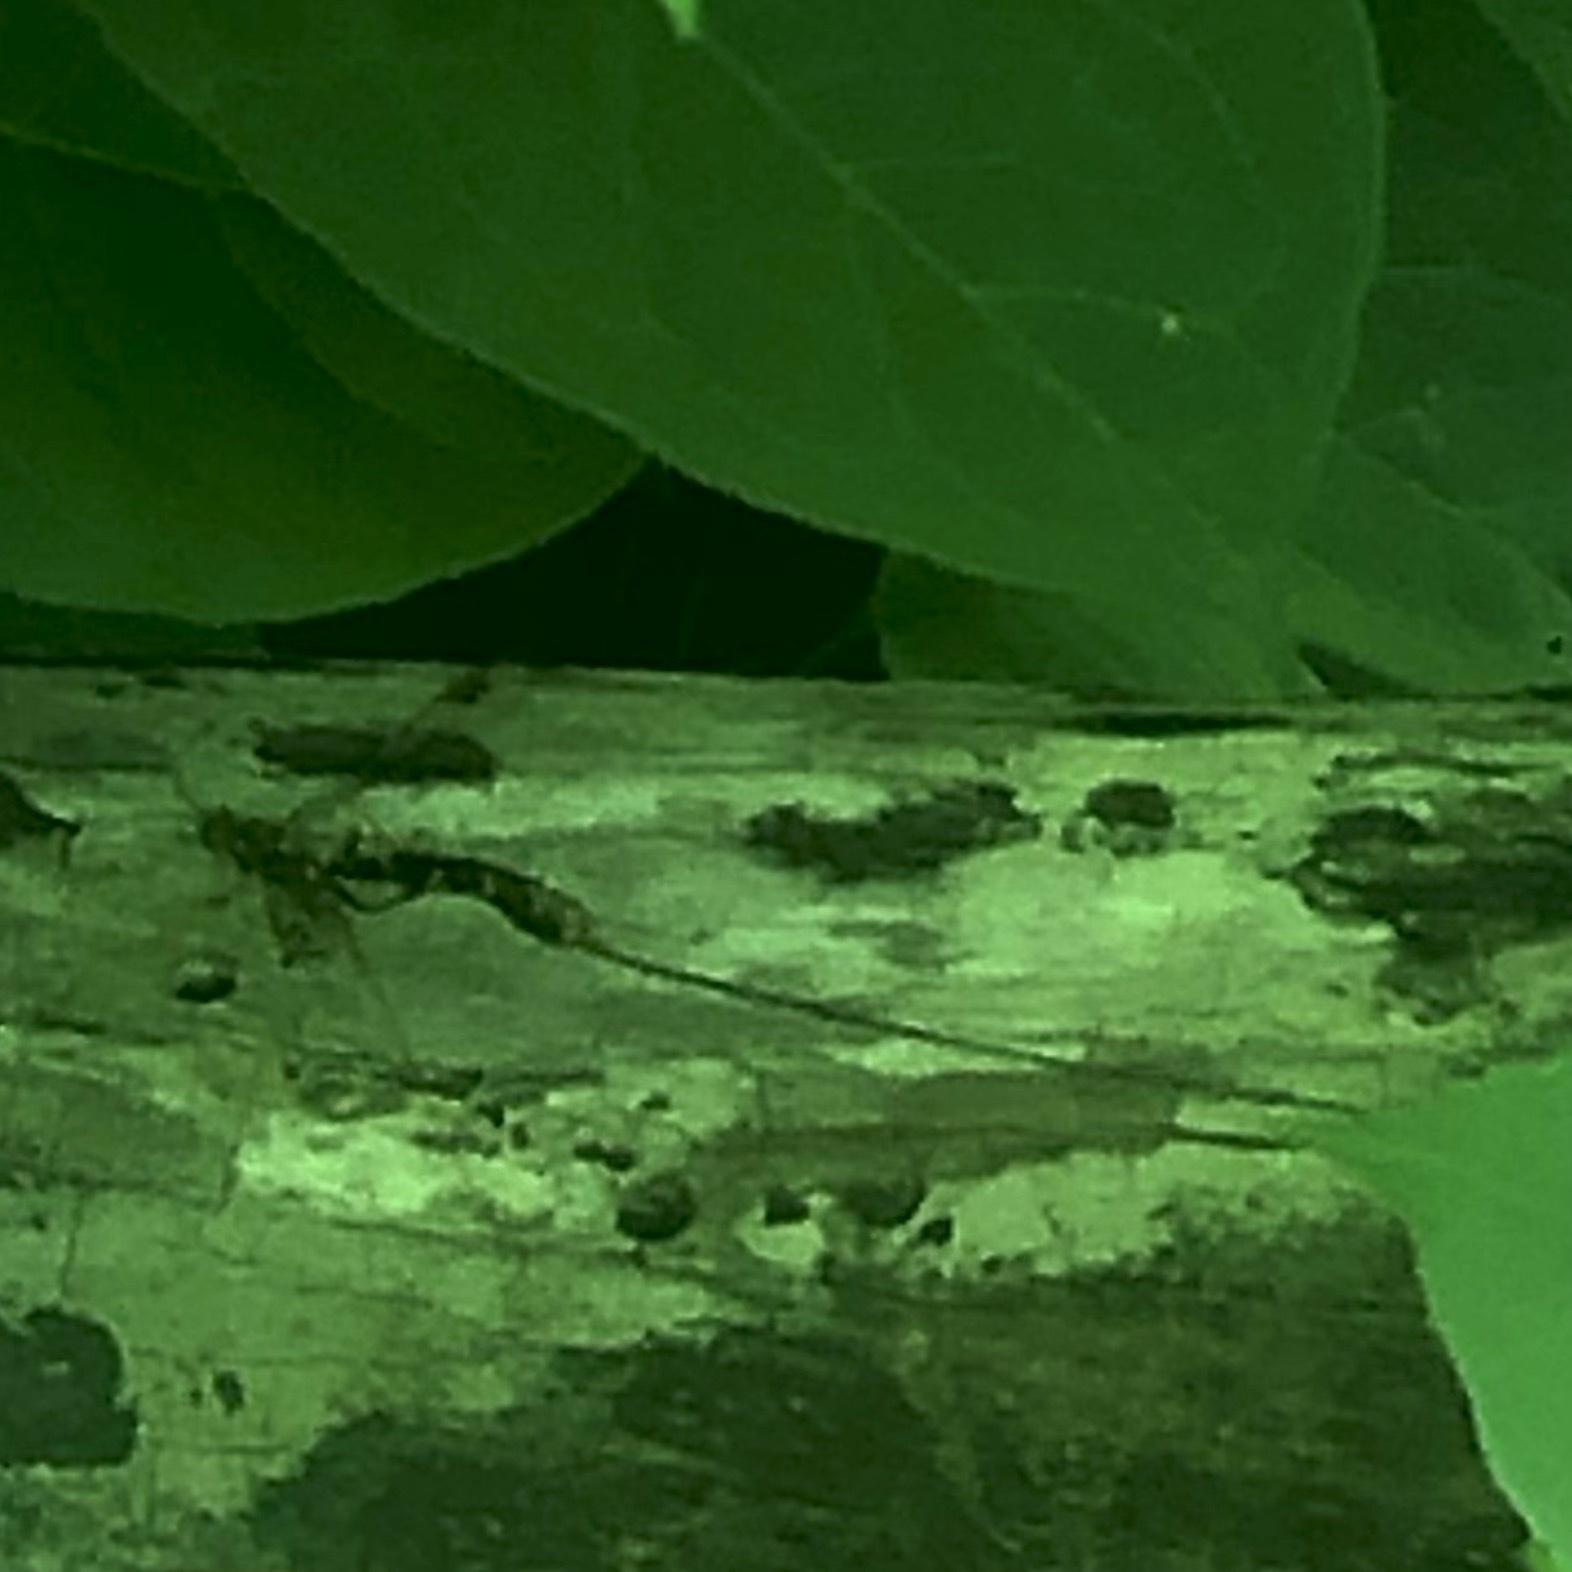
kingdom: Animalia
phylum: Arthropoda
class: Insecta
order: Hymenoptera
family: Ichneumonidae
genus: Megarhyssa
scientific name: Megarhyssa macrura
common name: Long-tailed giant ichneumonid wasp
